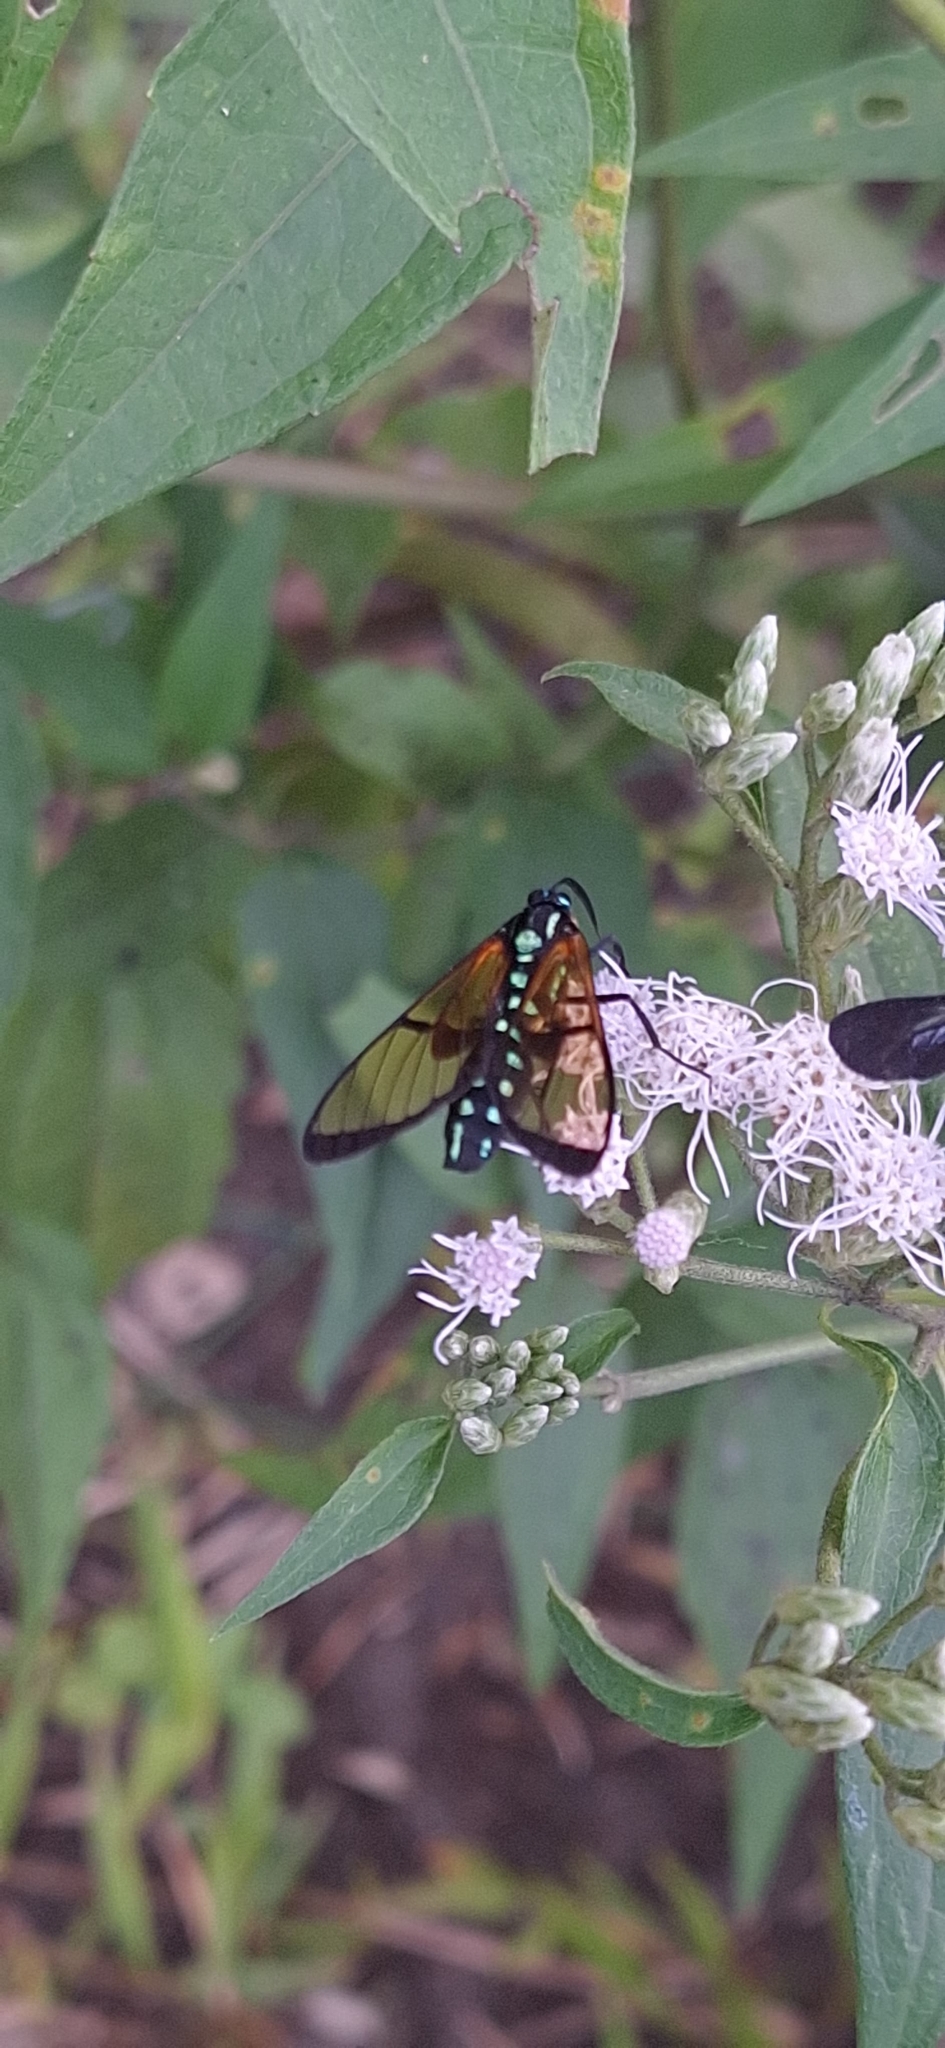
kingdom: Animalia
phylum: Arthropoda
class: Insecta
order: Lepidoptera
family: Erebidae
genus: Trichura
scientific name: Trichura cerberus
